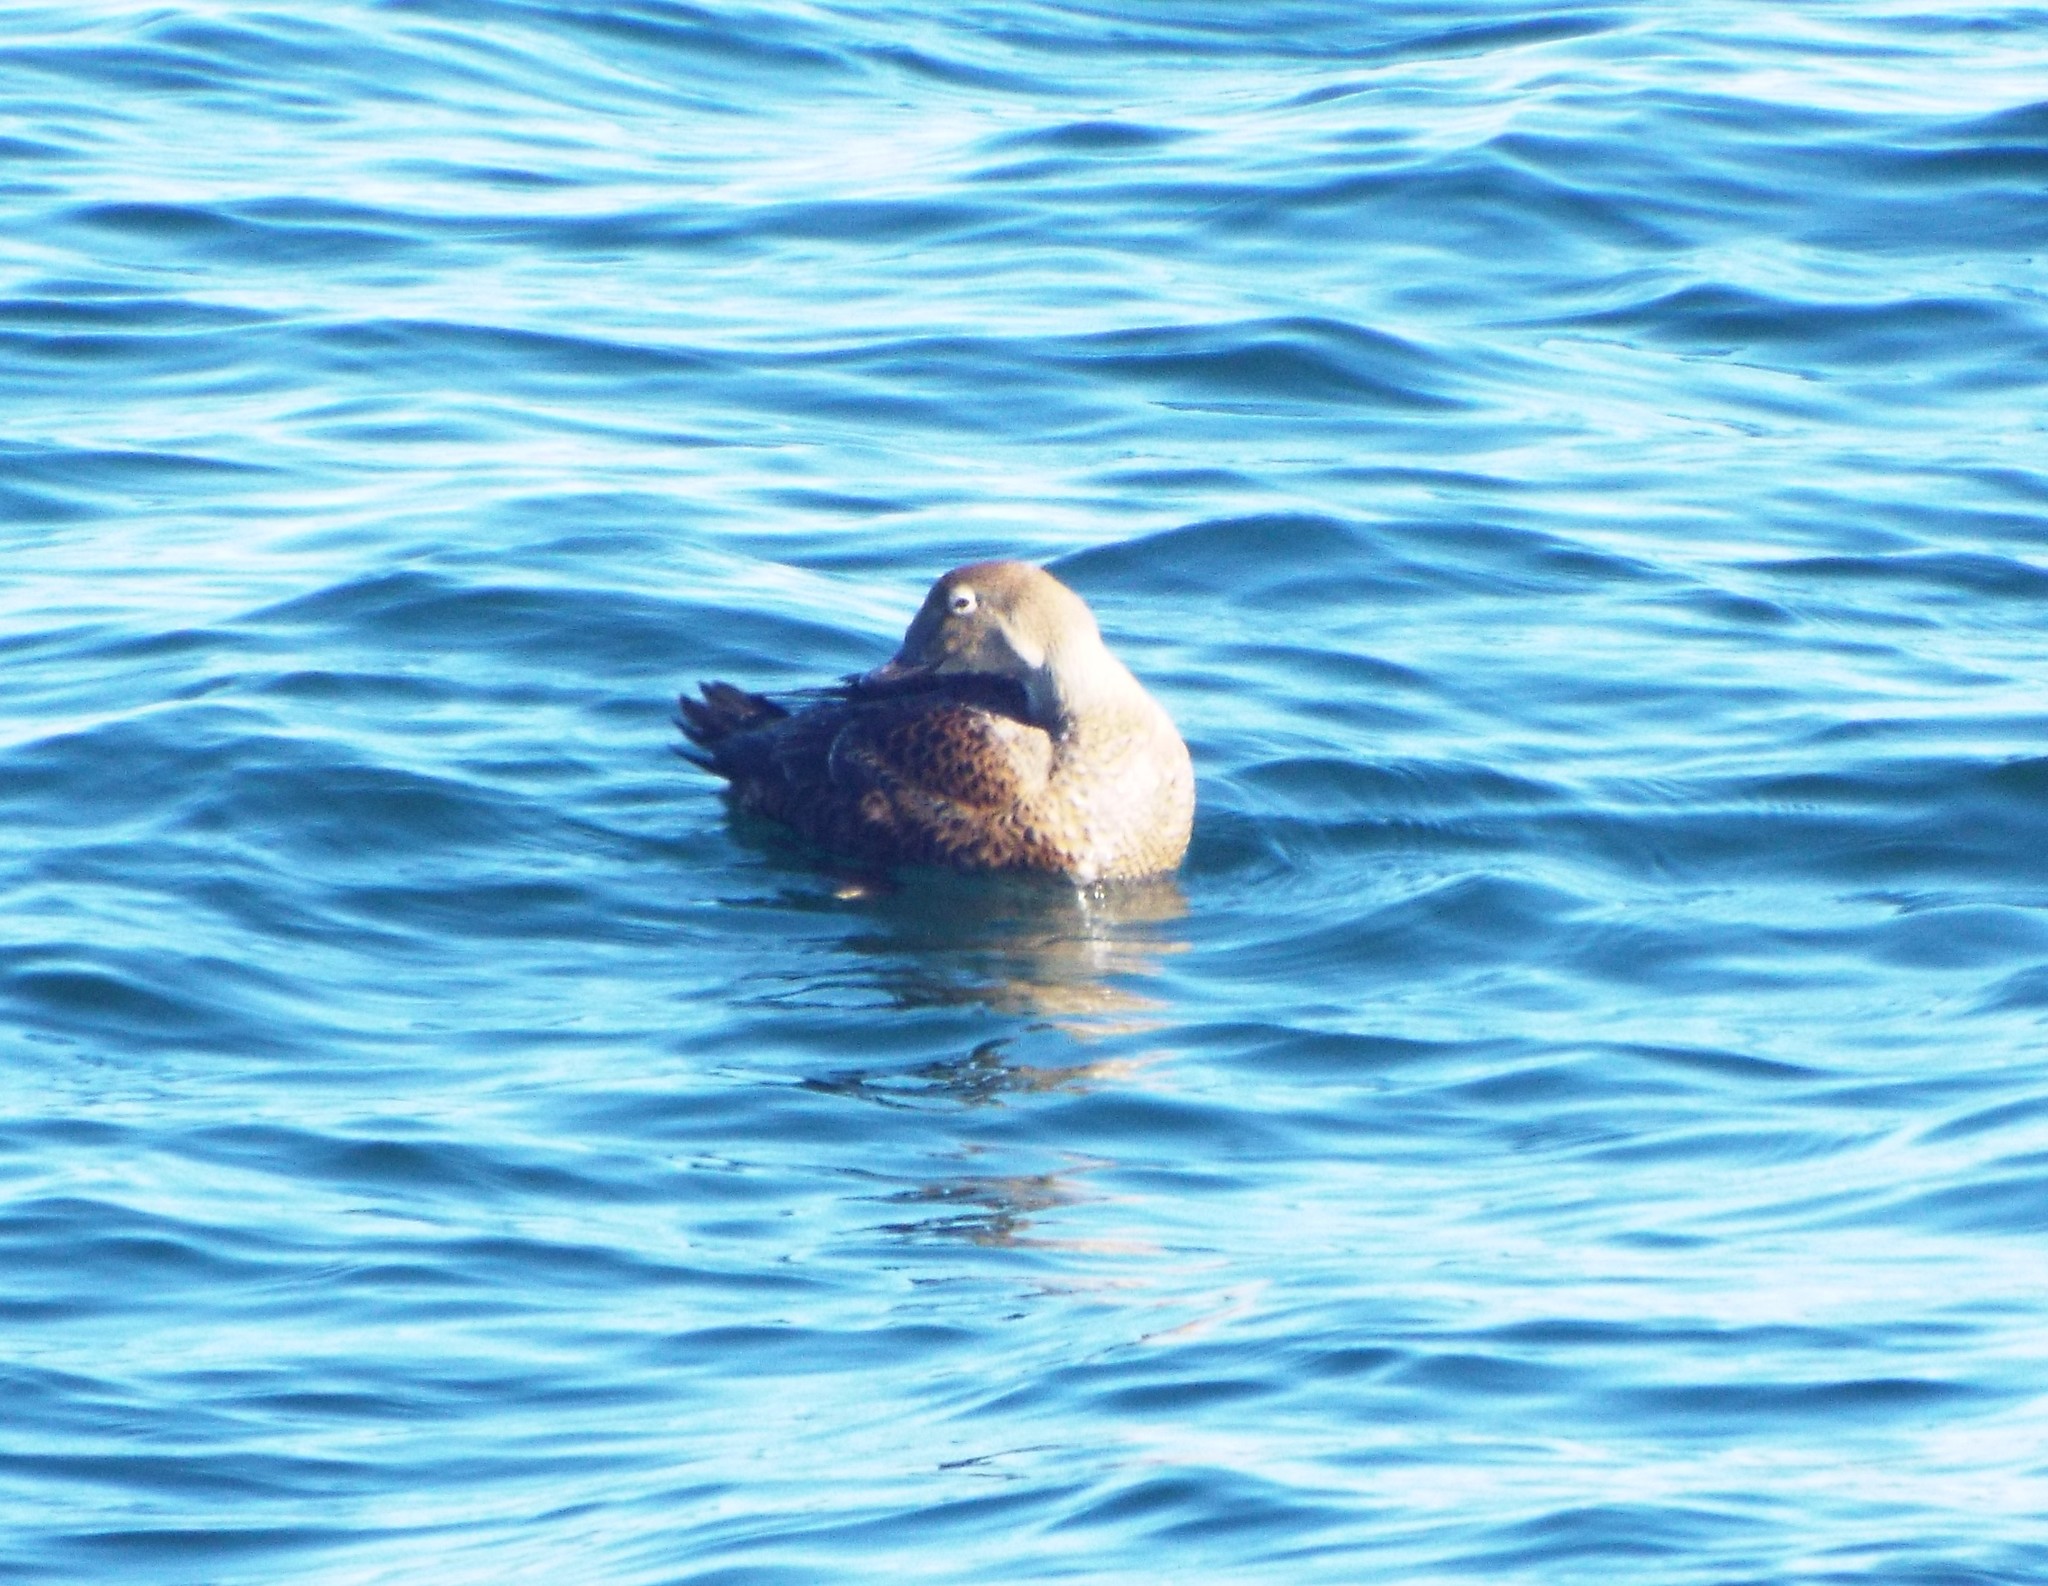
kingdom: Animalia
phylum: Chordata
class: Aves
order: Anseriformes
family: Anatidae
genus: Somateria
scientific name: Somateria spectabilis
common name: King eider
